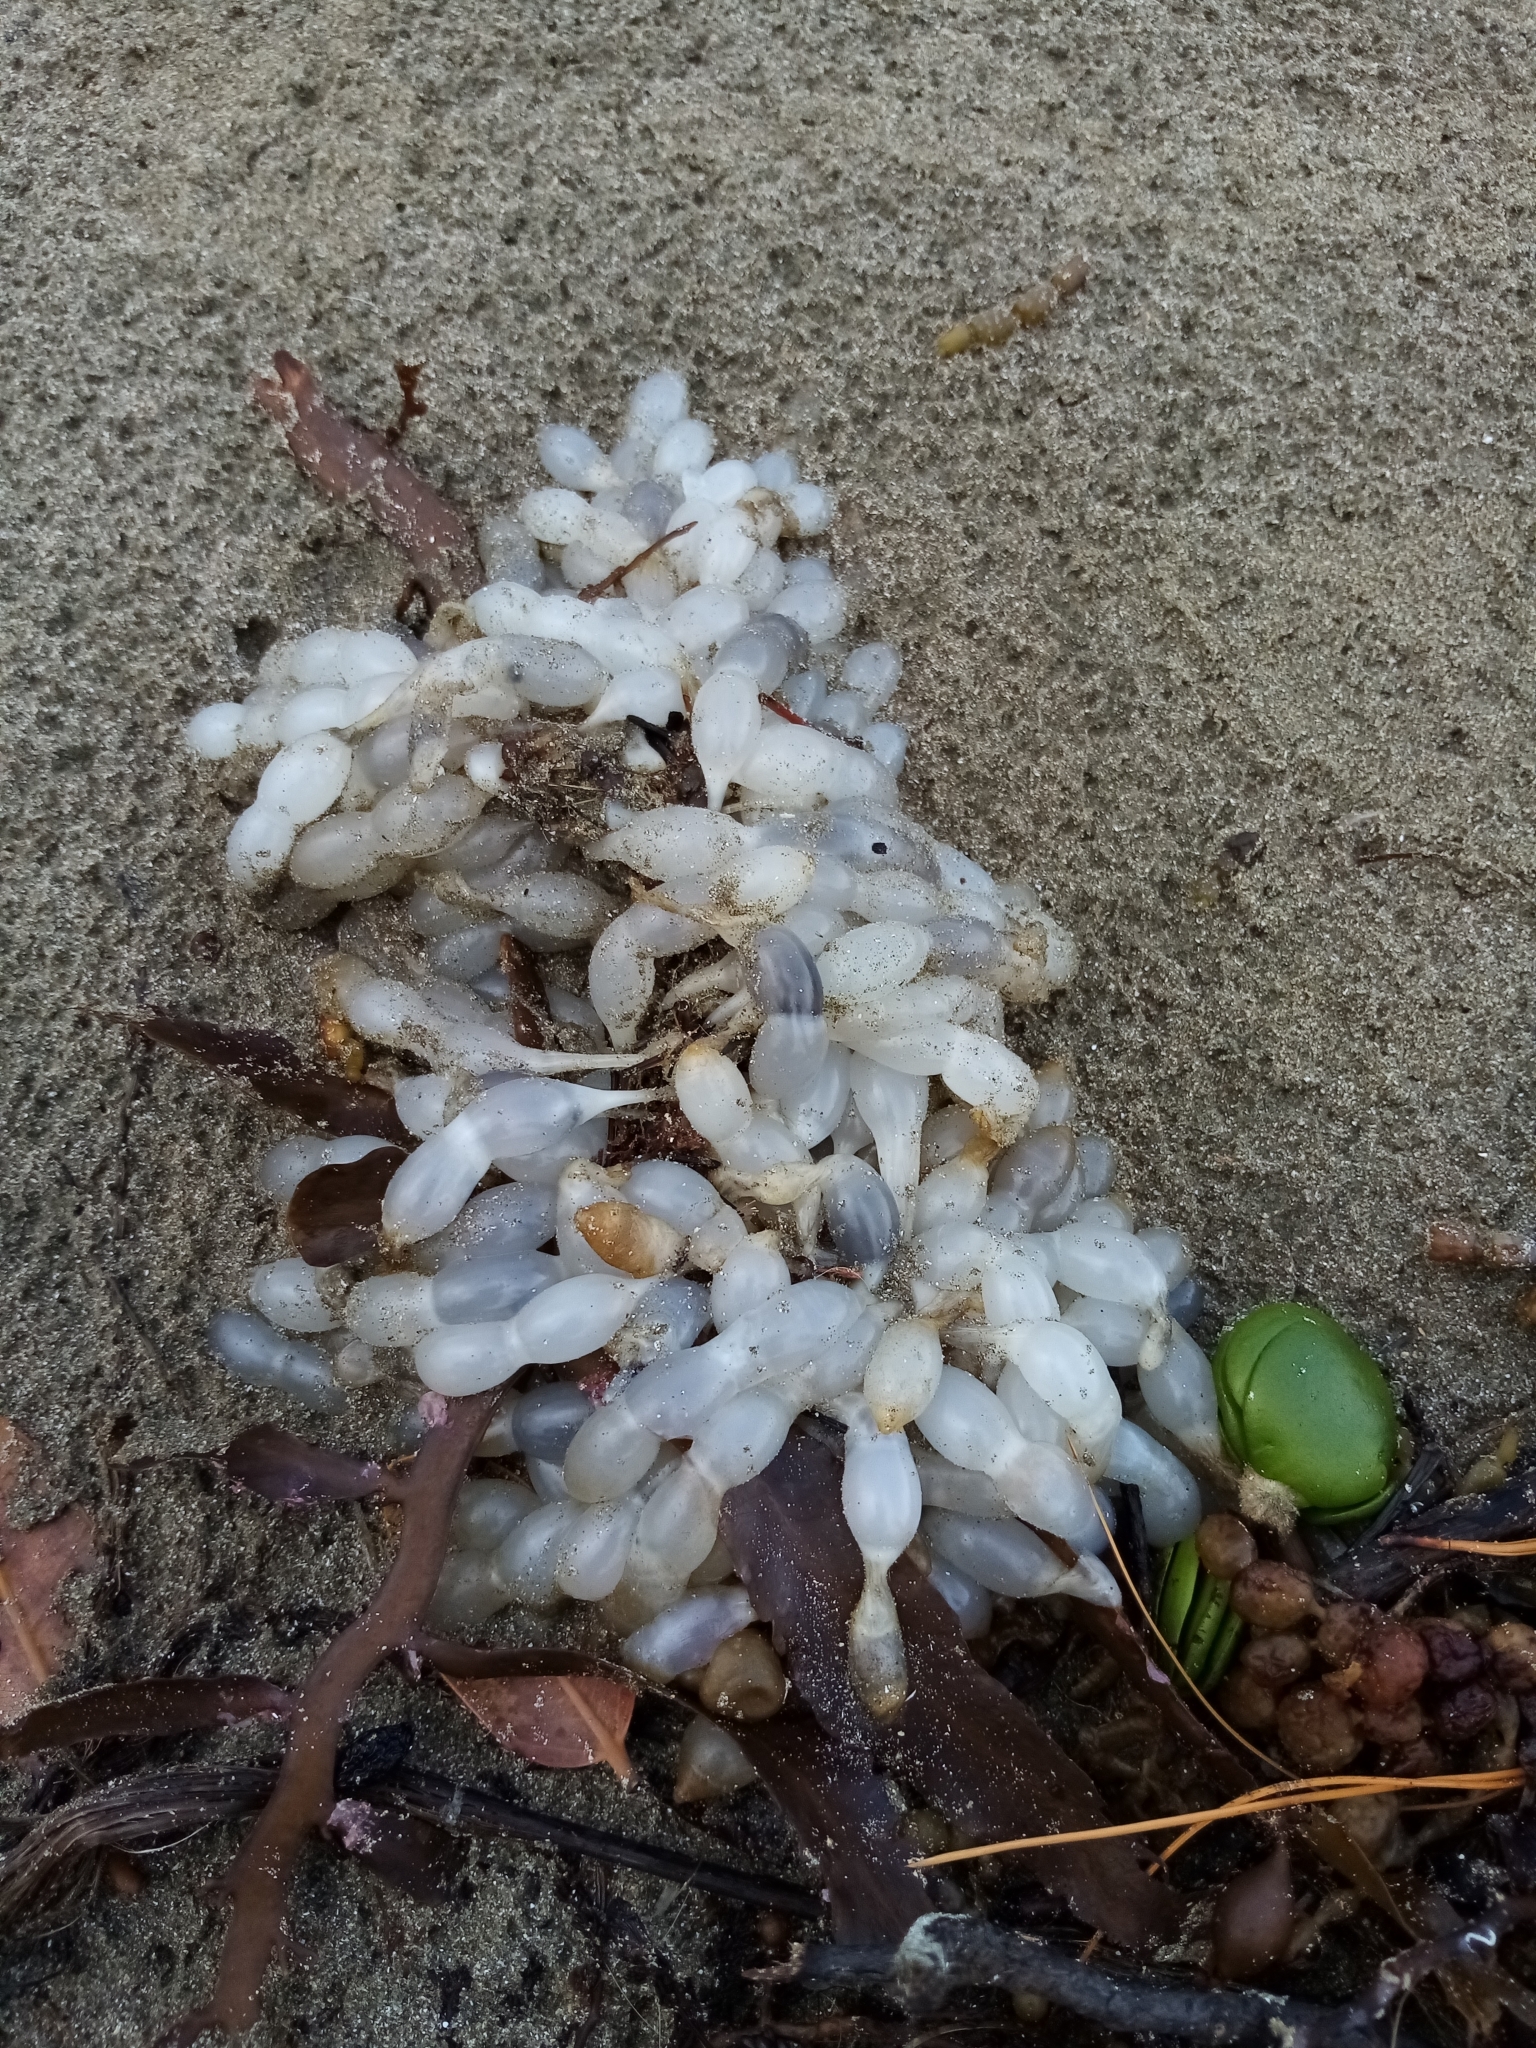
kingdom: Animalia
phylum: Mollusca
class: Cephalopoda
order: Myopsida
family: Loliginidae
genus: Sepioteuthis
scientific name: Sepioteuthis australis
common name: Southern reef squid
